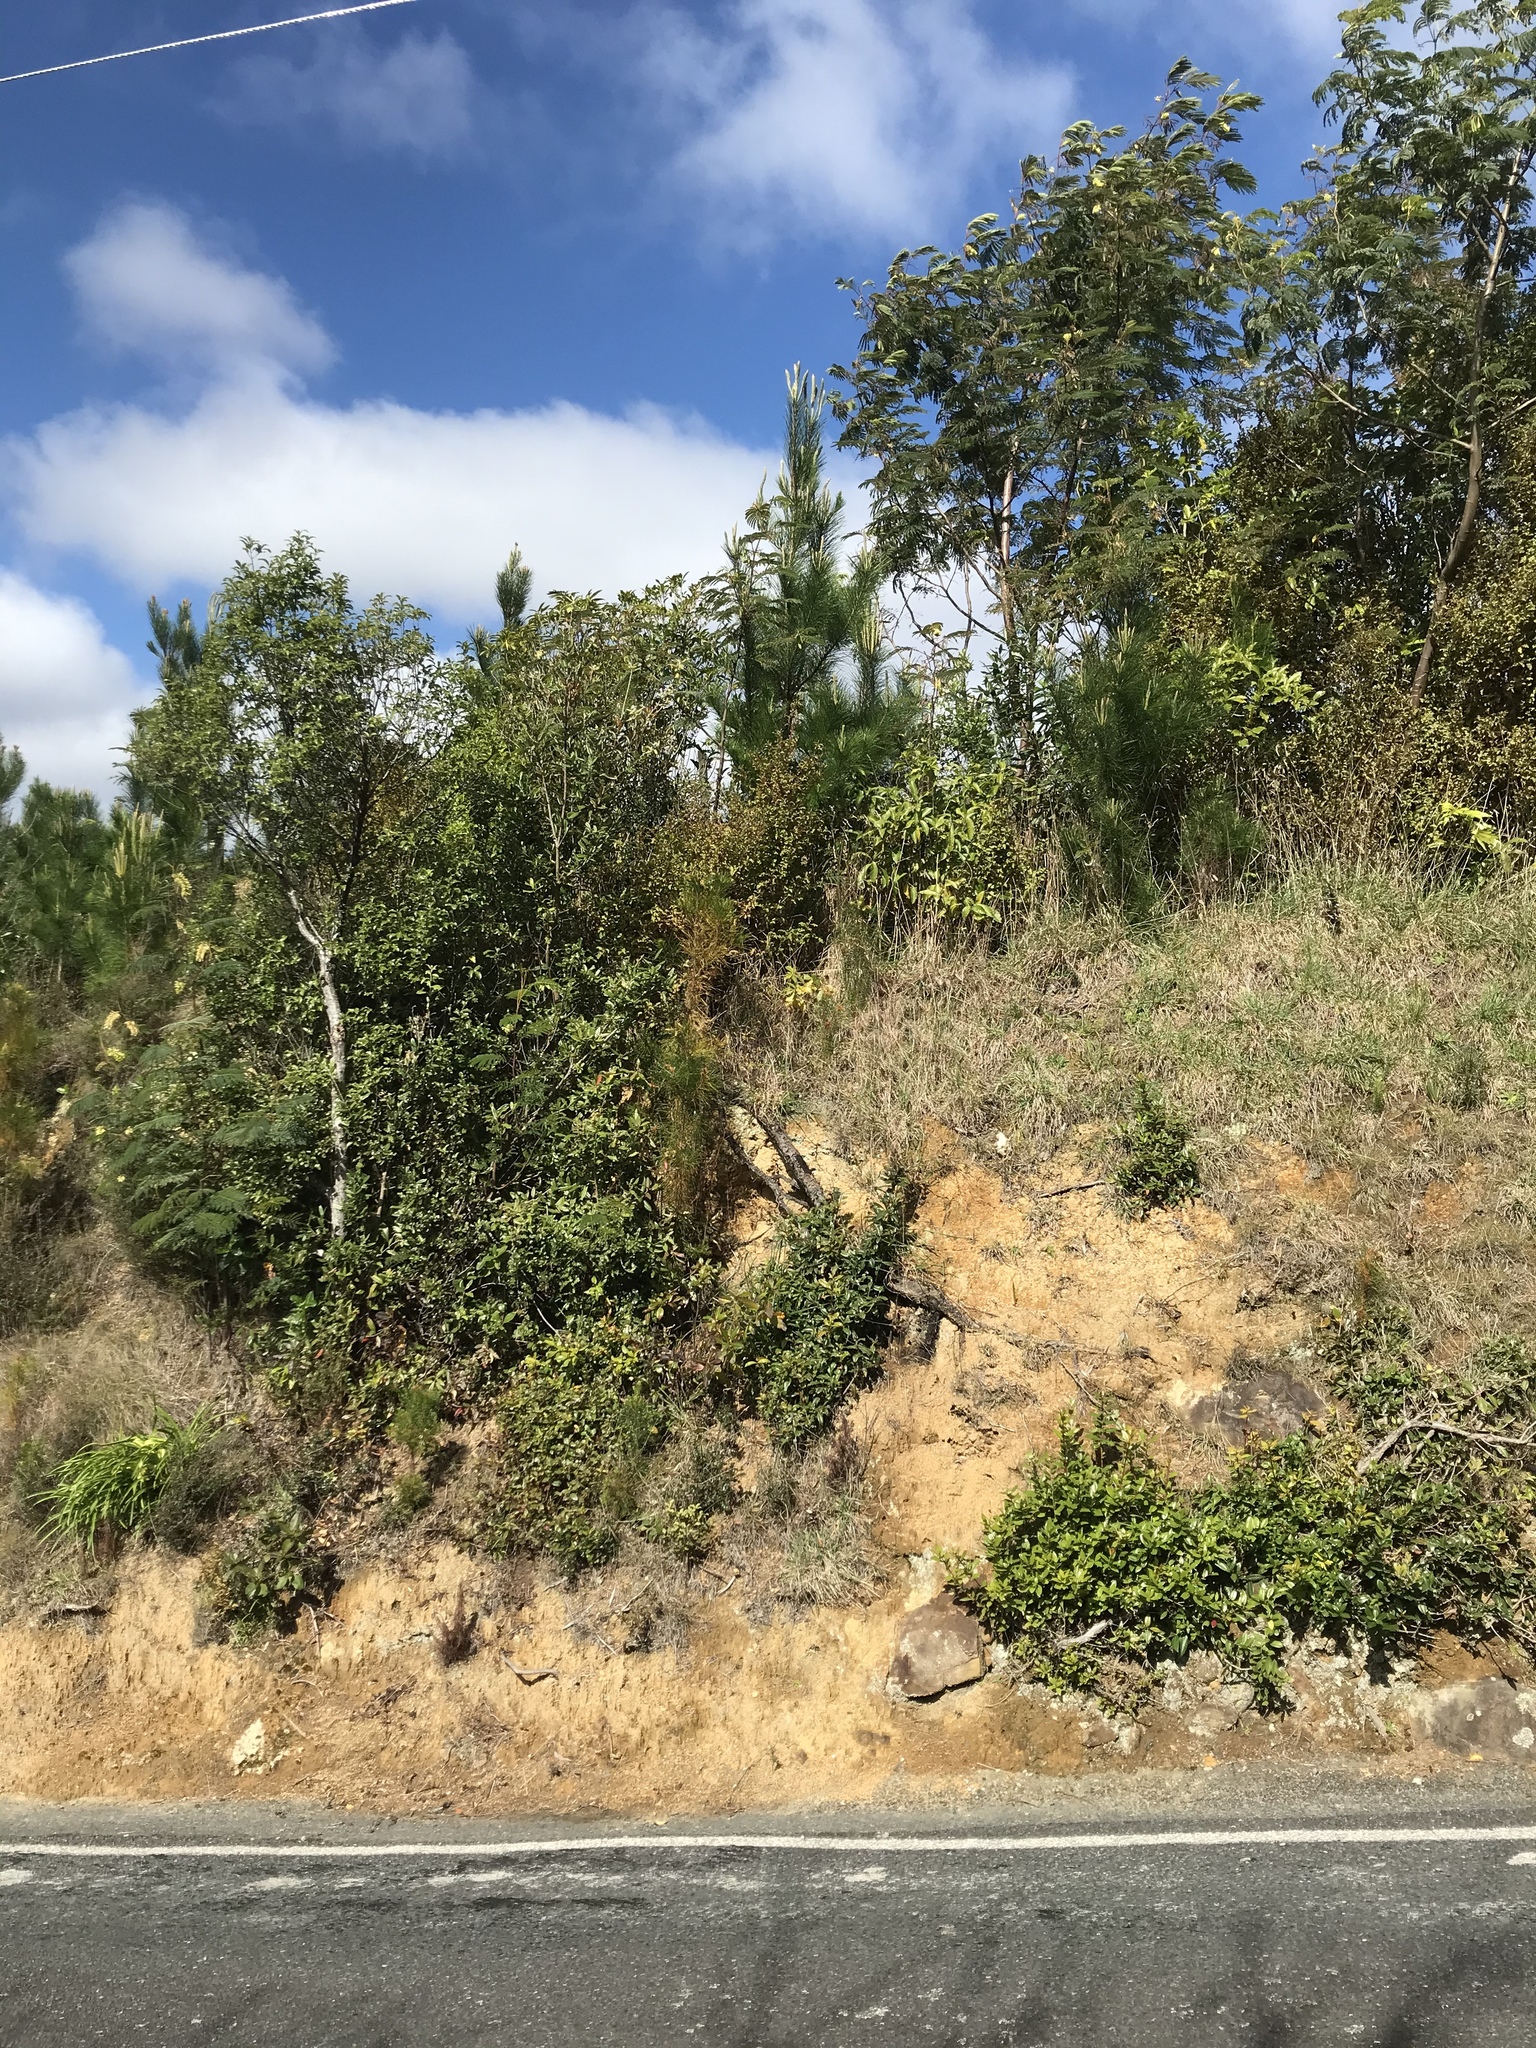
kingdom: Plantae
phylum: Tracheophyta
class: Pinopsida
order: Pinales
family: Pinaceae
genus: Pinus
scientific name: Pinus radiata
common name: Monterey pine
